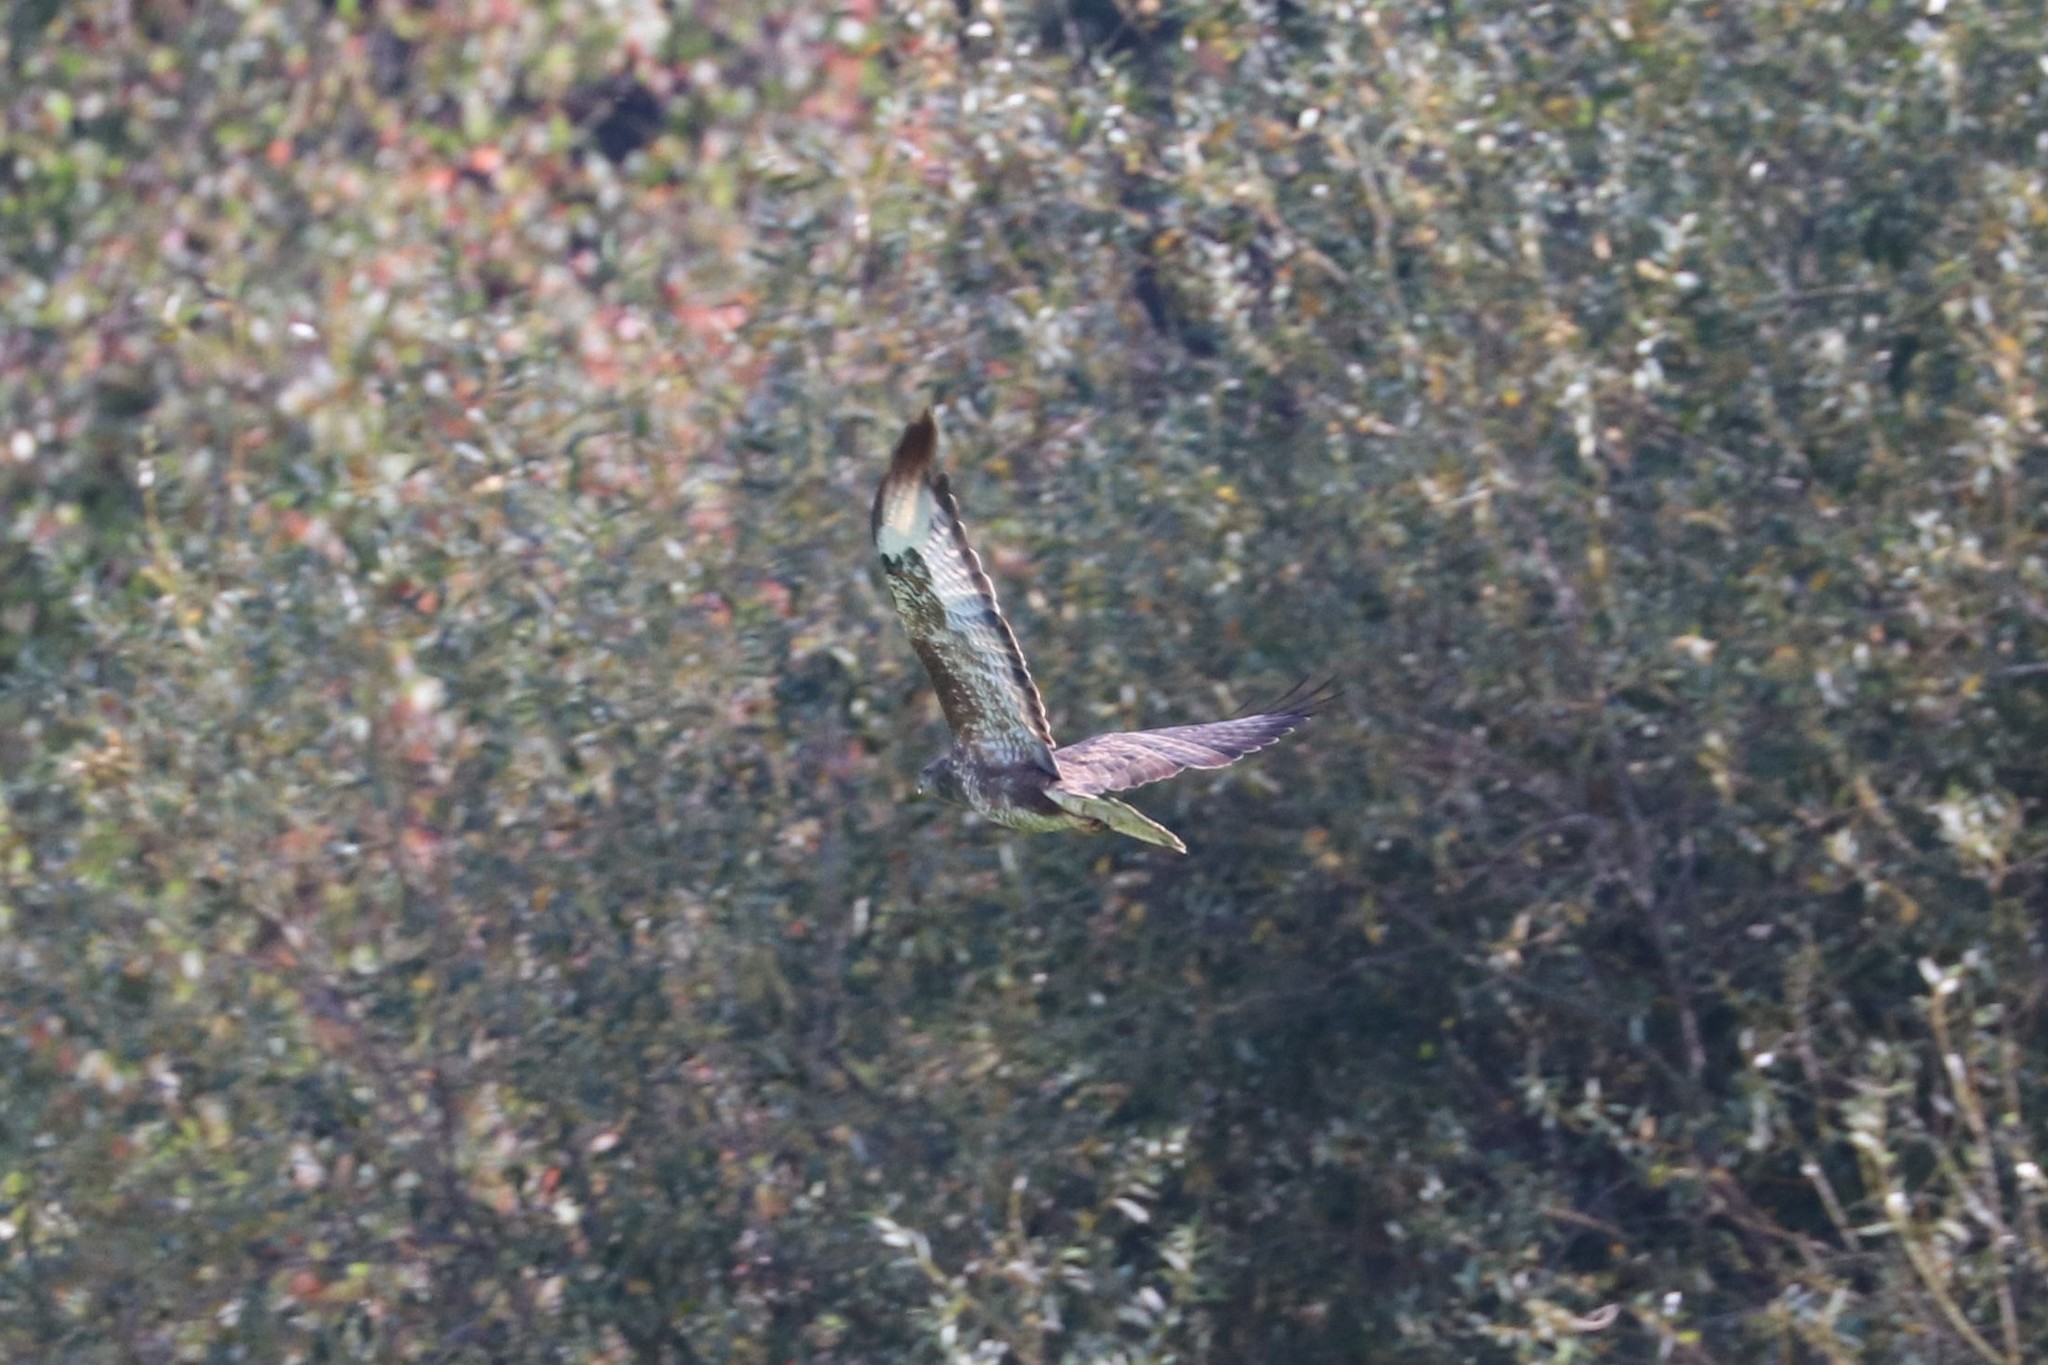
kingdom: Animalia
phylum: Chordata
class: Aves
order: Accipitriformes
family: Accipitridae
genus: Buteo
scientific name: Buteo buteo
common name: Common buzzard
